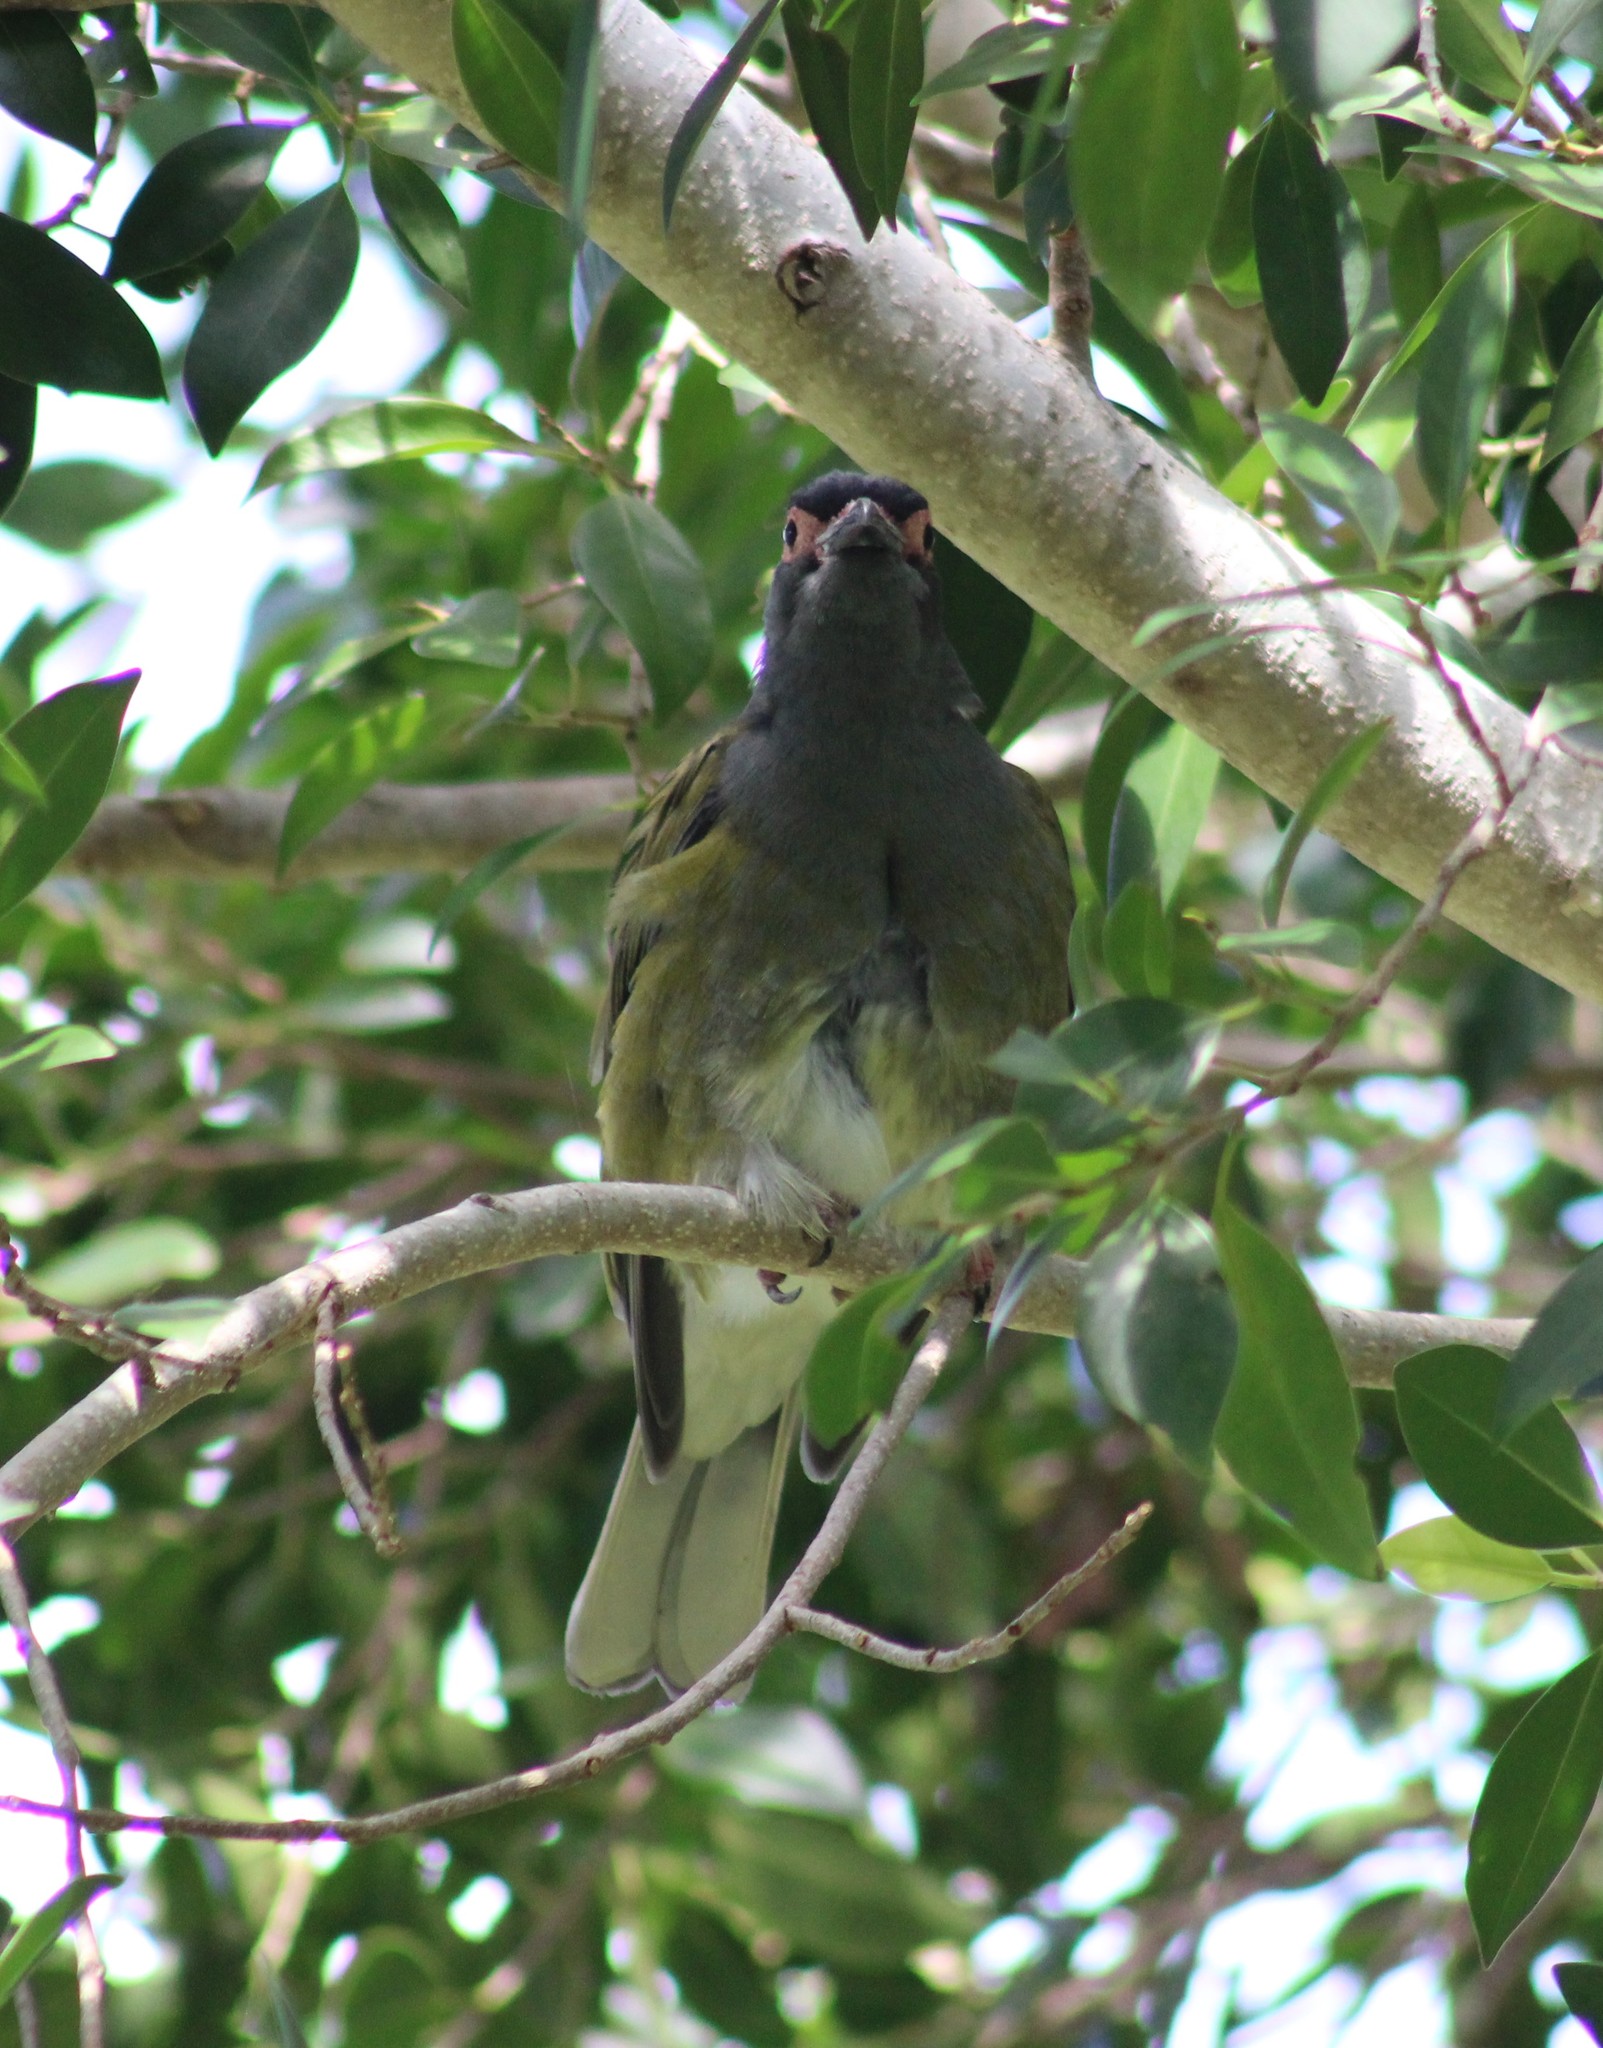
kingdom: Animalia
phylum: Chordata
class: Aves
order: Passeriformes
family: Oriolidae
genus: Sphecotheres
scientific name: Sphecotheres vieilloti
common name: Australasian figbird
